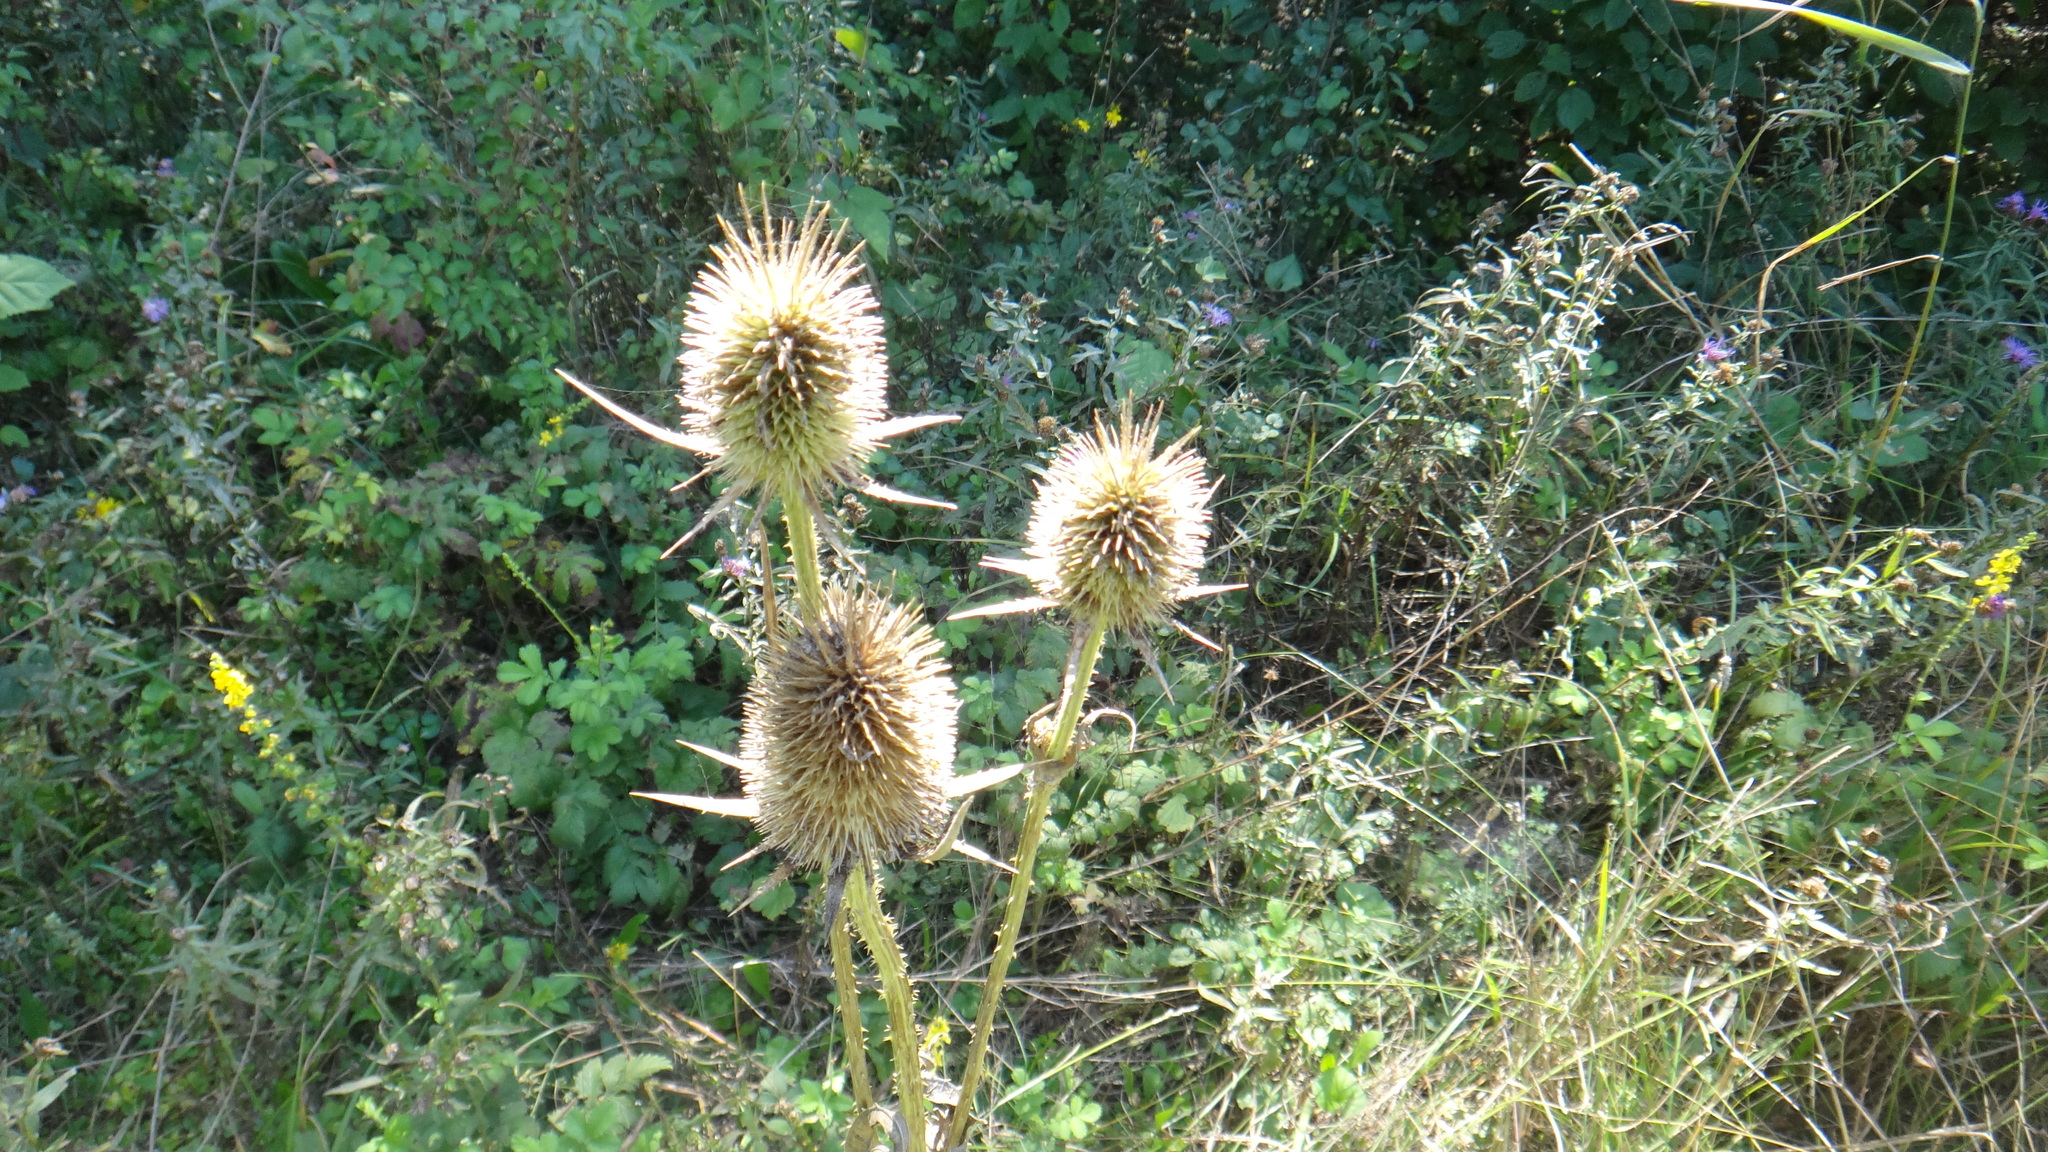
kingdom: Plantae
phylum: Tracheophyta
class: Magnoliopsida
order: Dipsacales
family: Caprifoliaceae
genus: Dipsacus
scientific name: Dipsacus laciniatus
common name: Cut-leaved teasel
